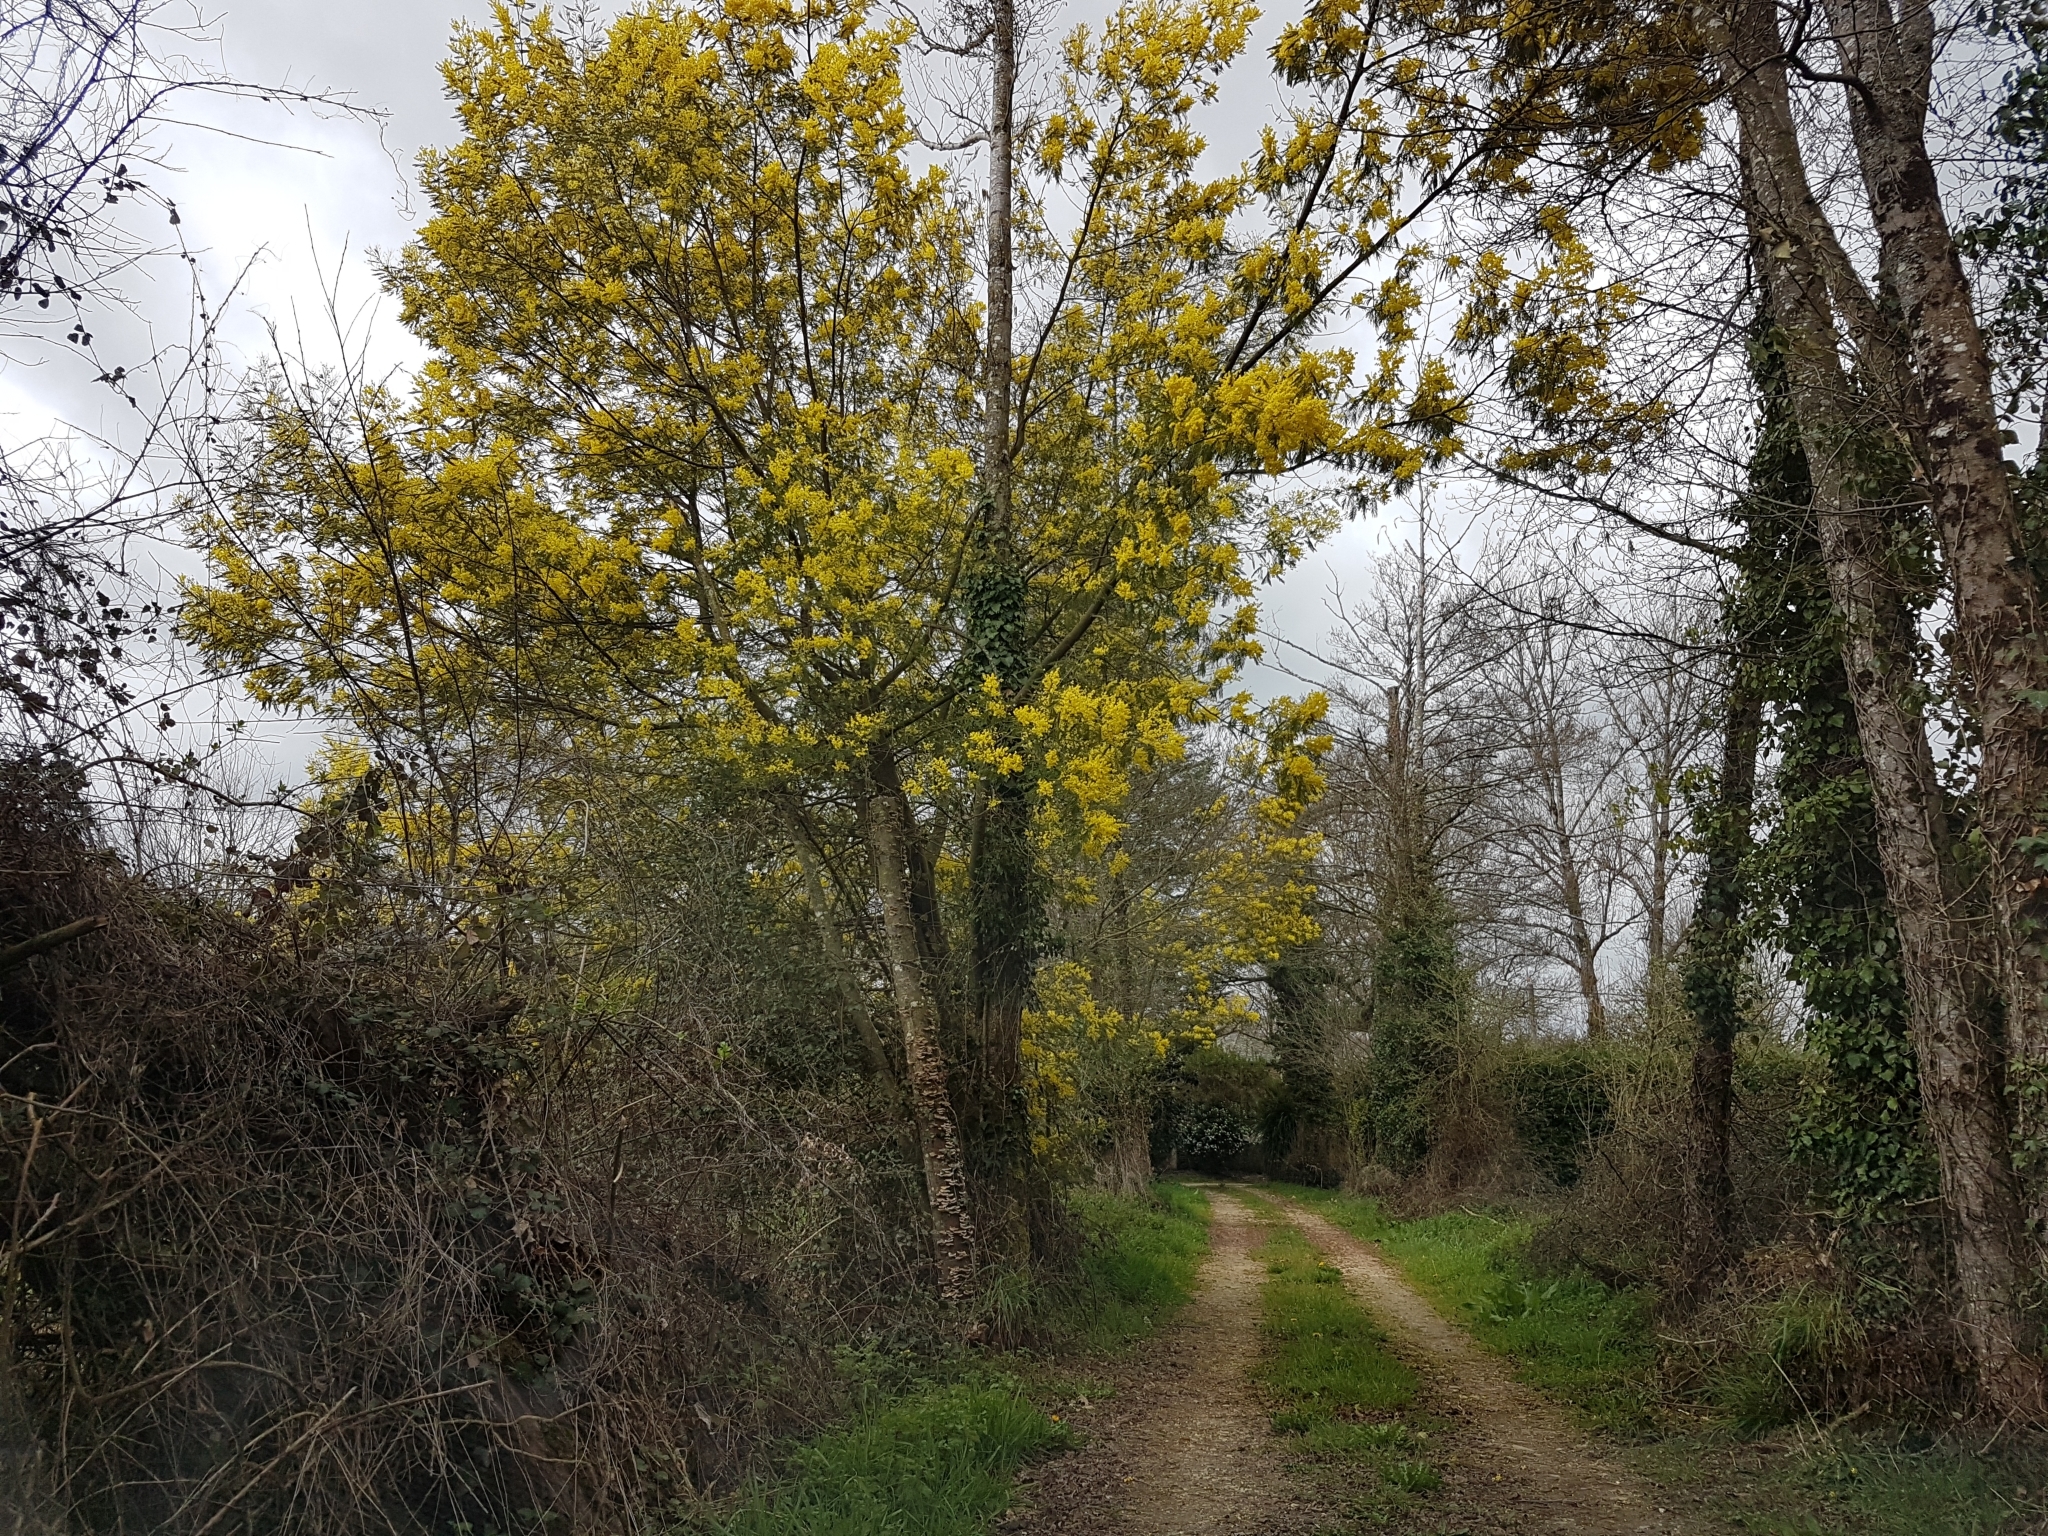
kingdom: Plantae
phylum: Tracheophyta
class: Magnoliopsida
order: Fabales
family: Fabaceae
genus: Acacia
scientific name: Acacia dealbata
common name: Silver wattle
